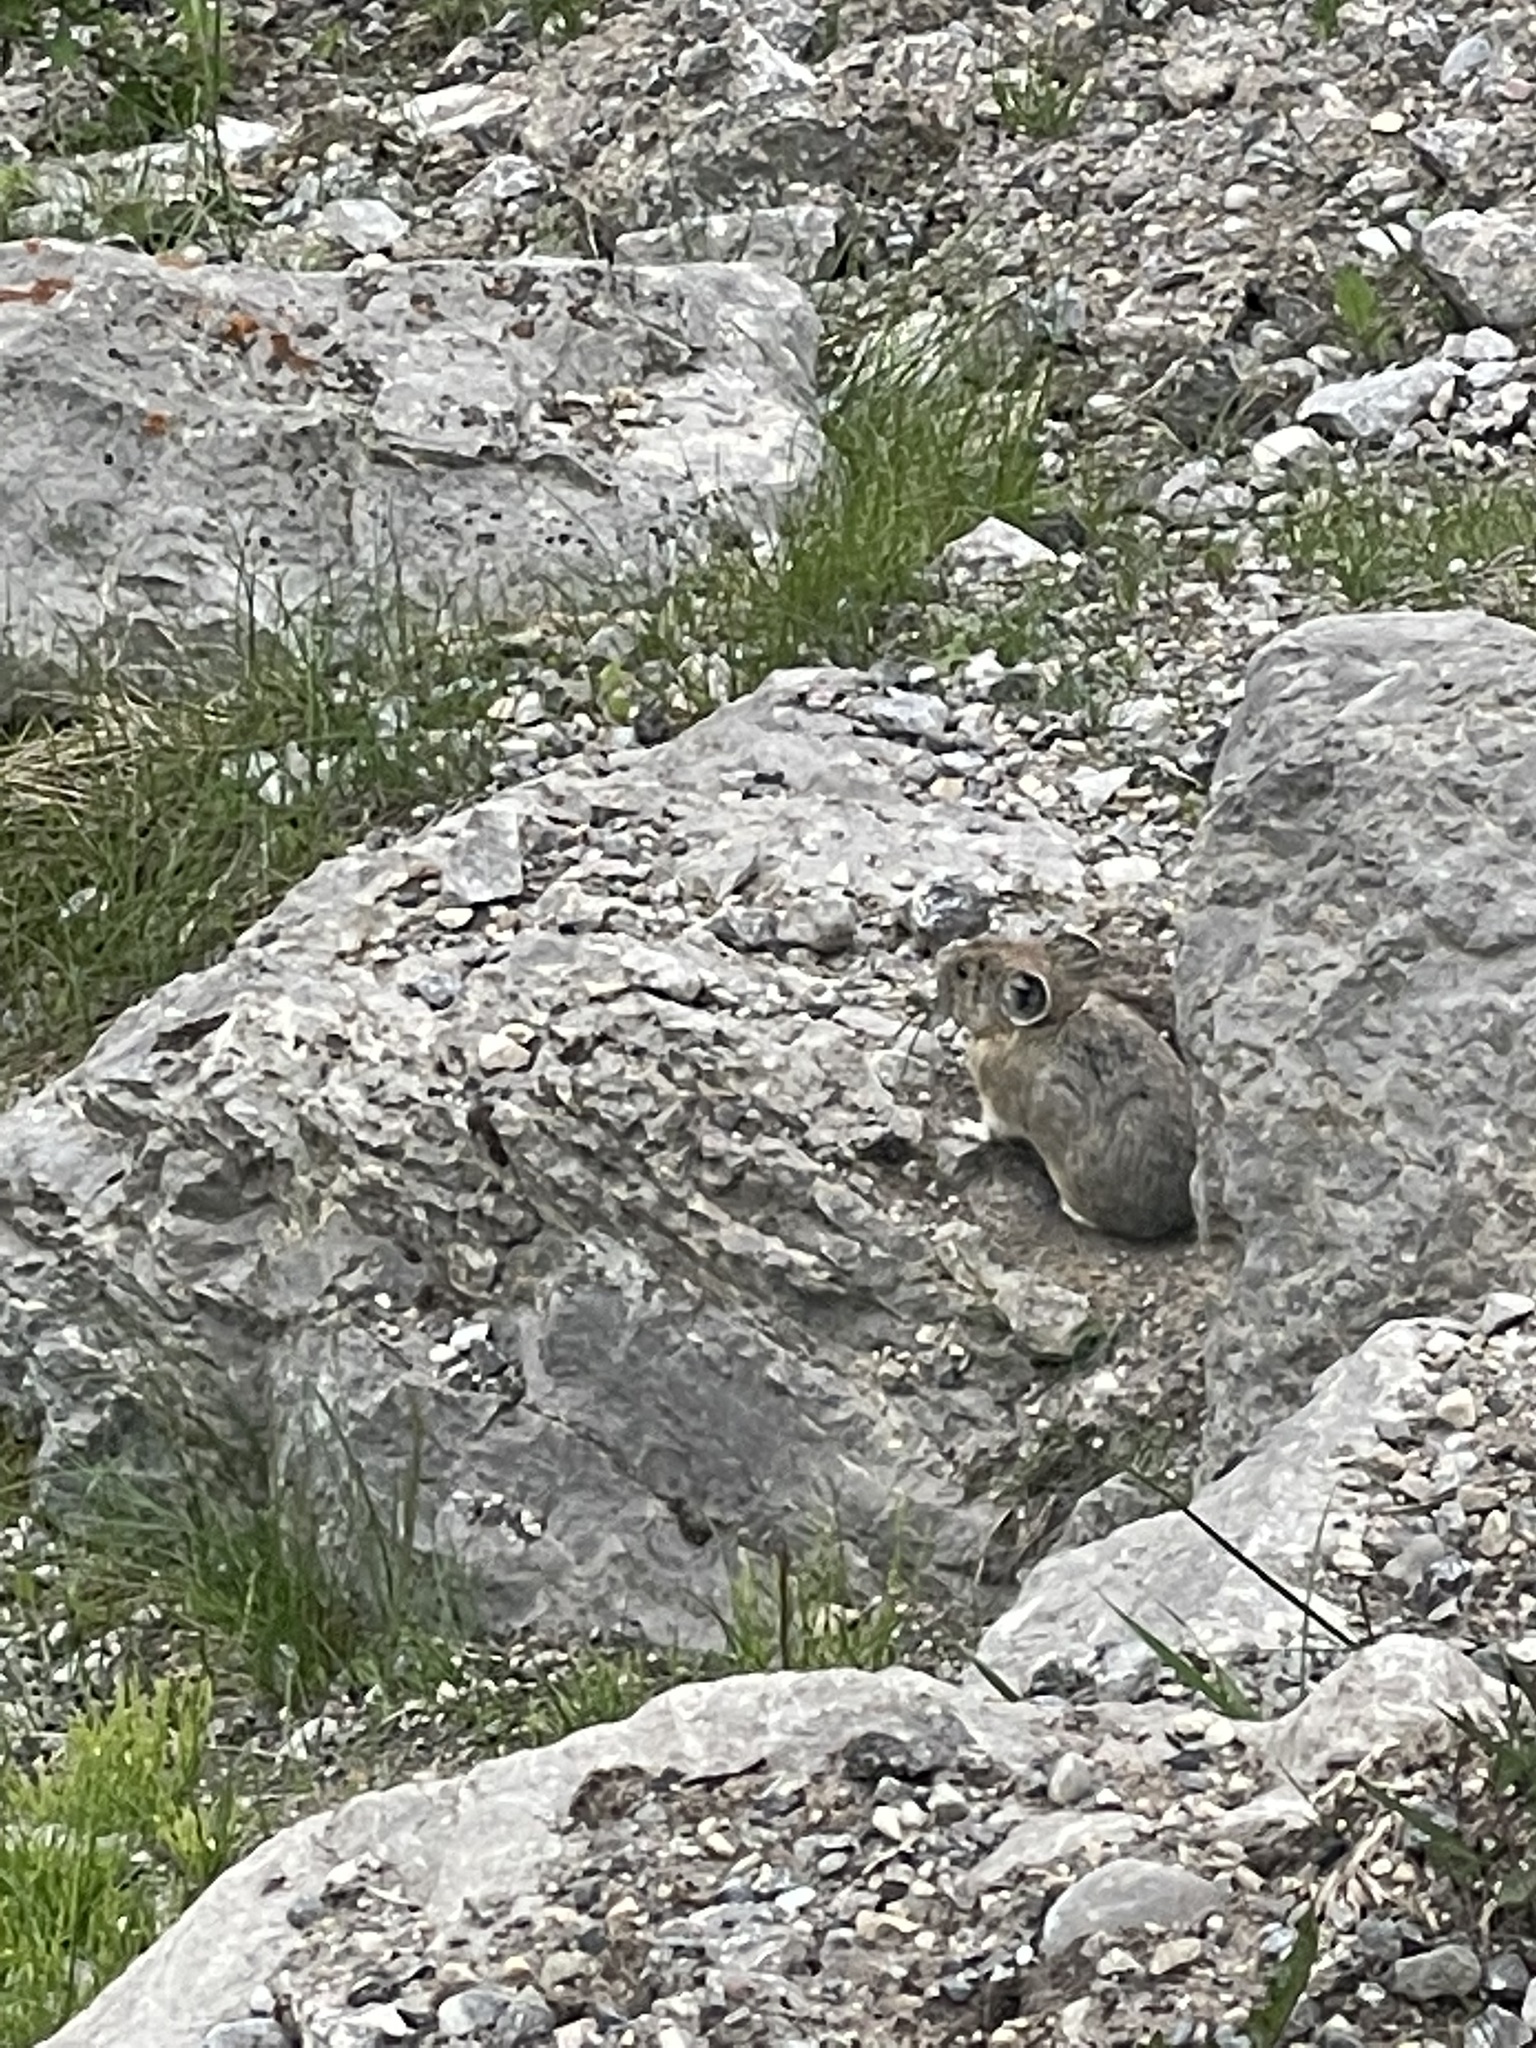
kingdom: Animalia
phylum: Chordata
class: Mammalia
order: Lagomorpha
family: Ochotonidae
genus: Ochotona
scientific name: Ochotona princeps
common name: American pika
